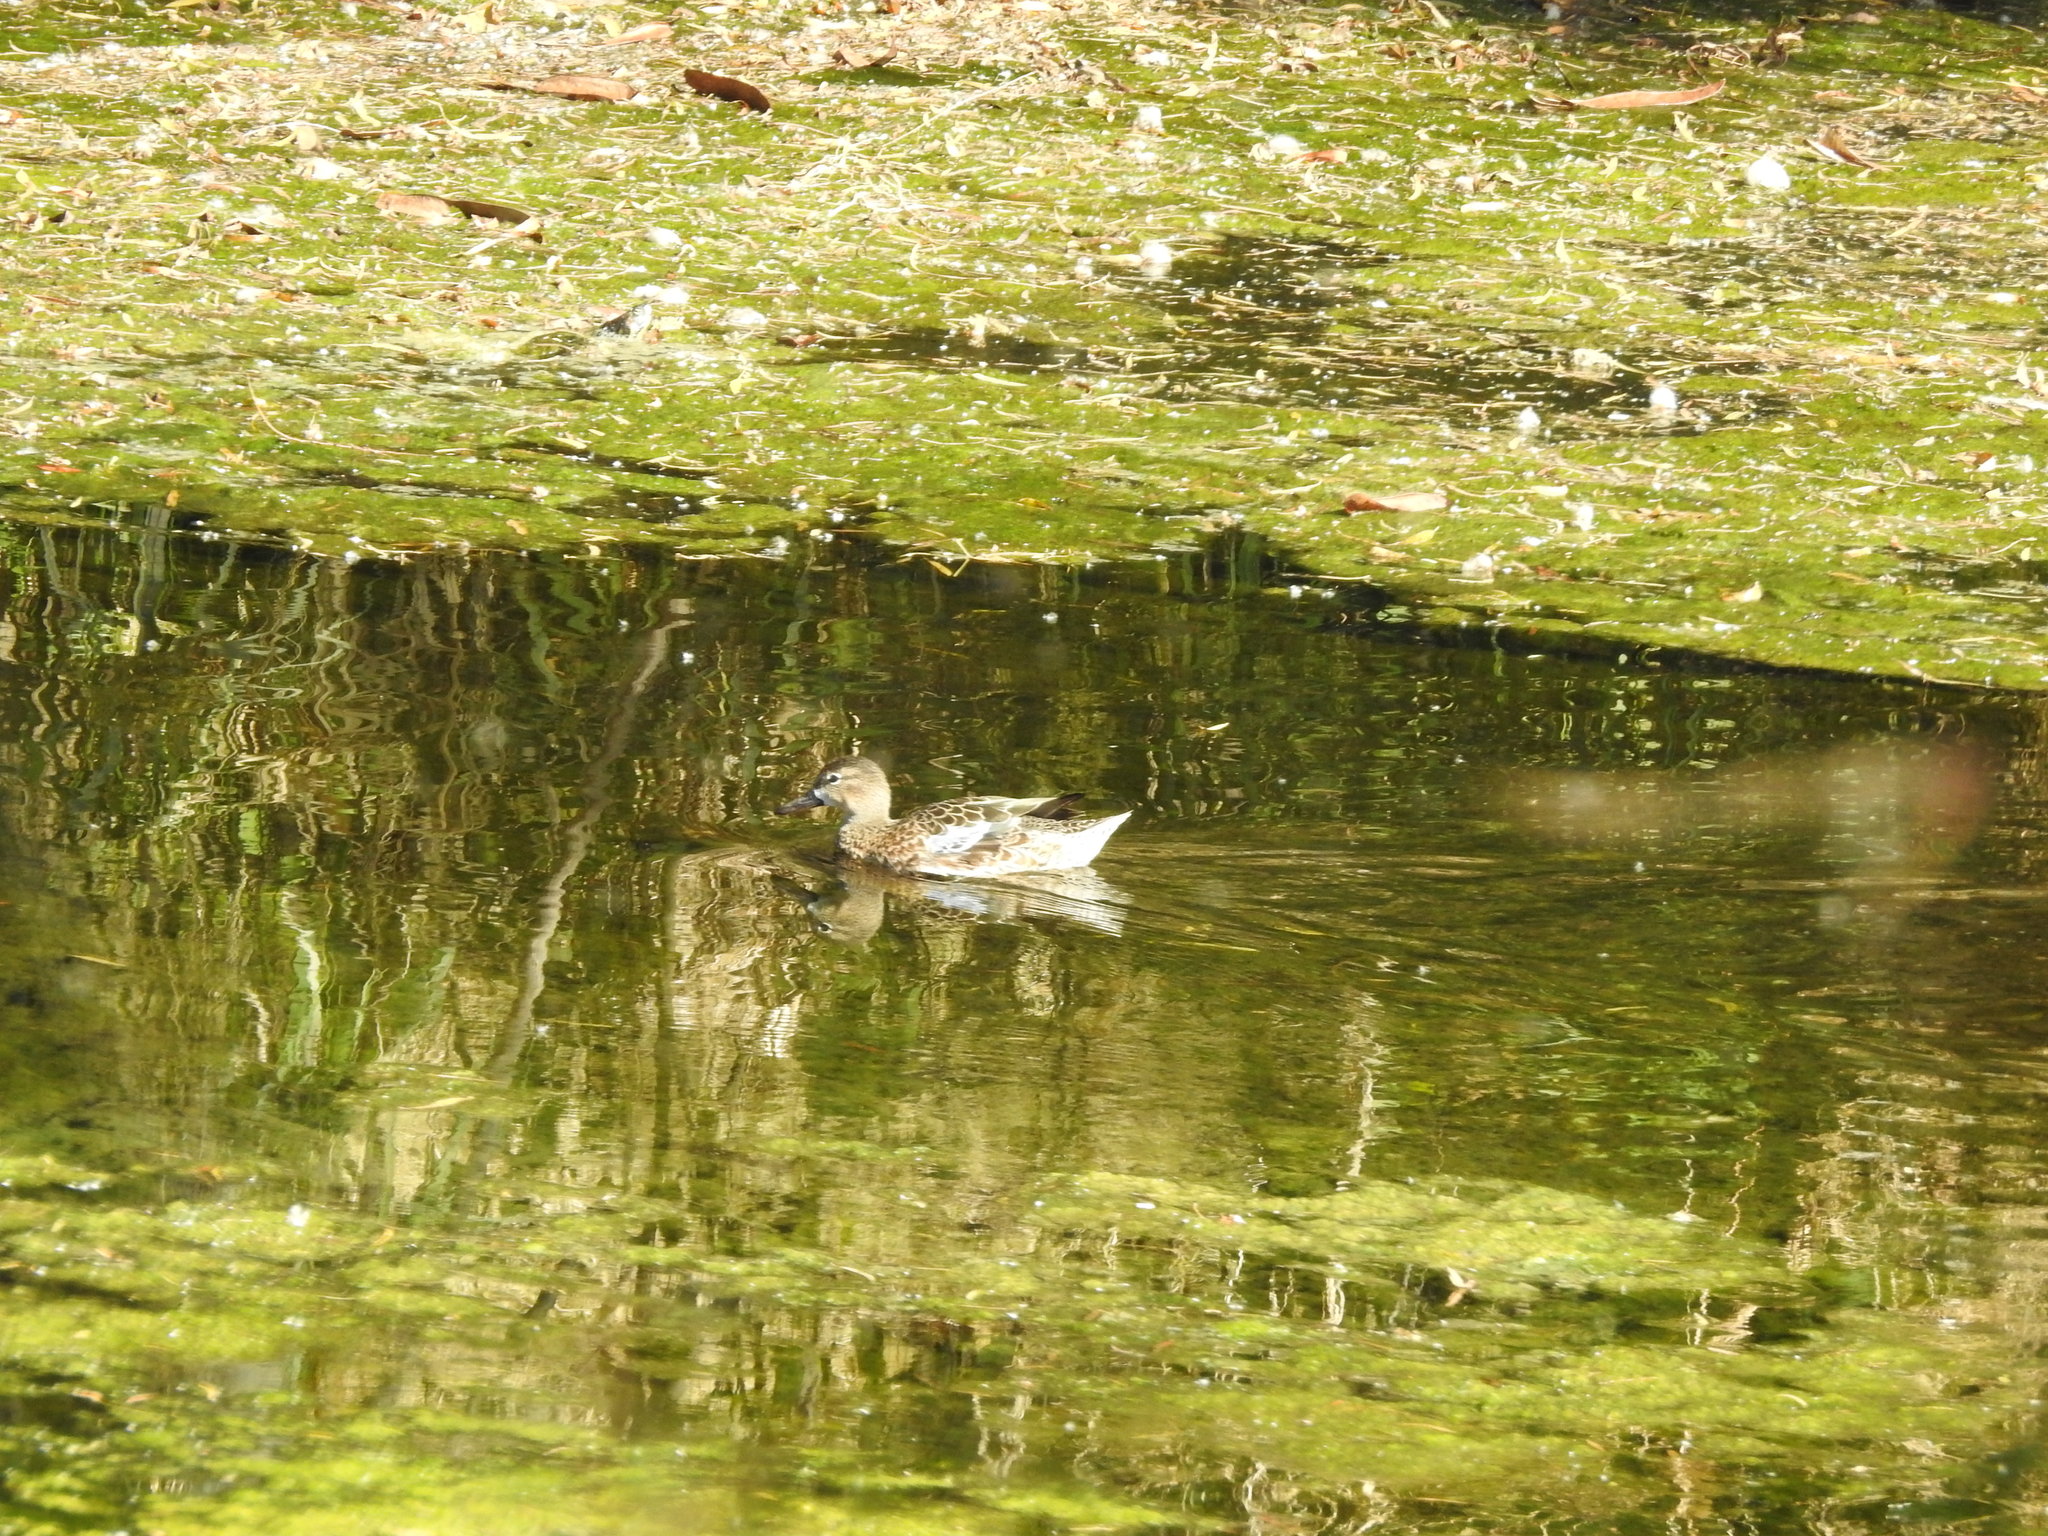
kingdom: Animalia
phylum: Chordata
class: Aves
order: Anseriformes
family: Anatidae
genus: Spatula
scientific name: Spatula discors
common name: Blue-winged teal
